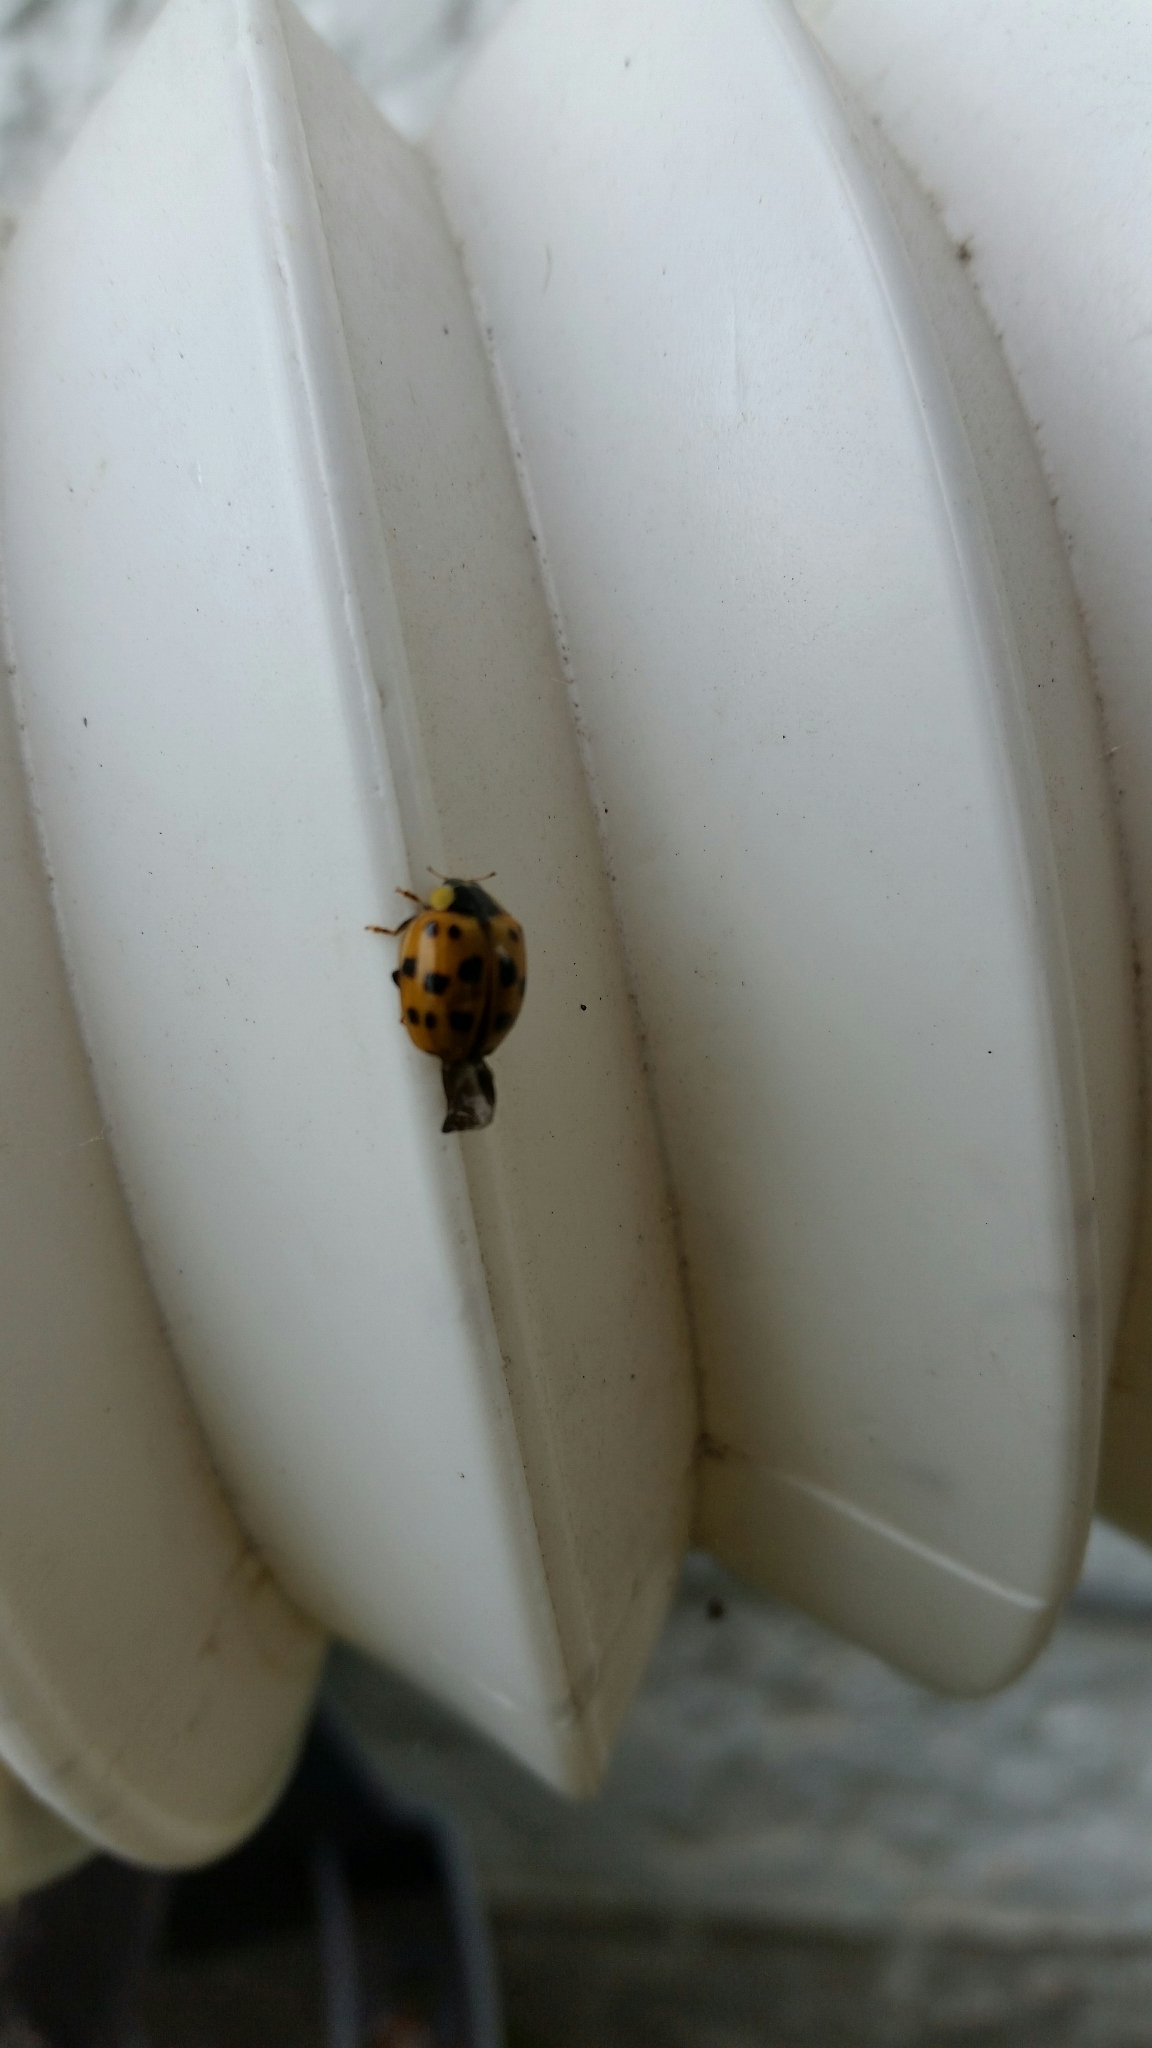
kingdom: Animalia
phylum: Arthropoda
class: Insecta
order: Coleoptera
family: Coccinellidae
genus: Harmonia
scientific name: Harmonia axyridis
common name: Harlequin ladybird
